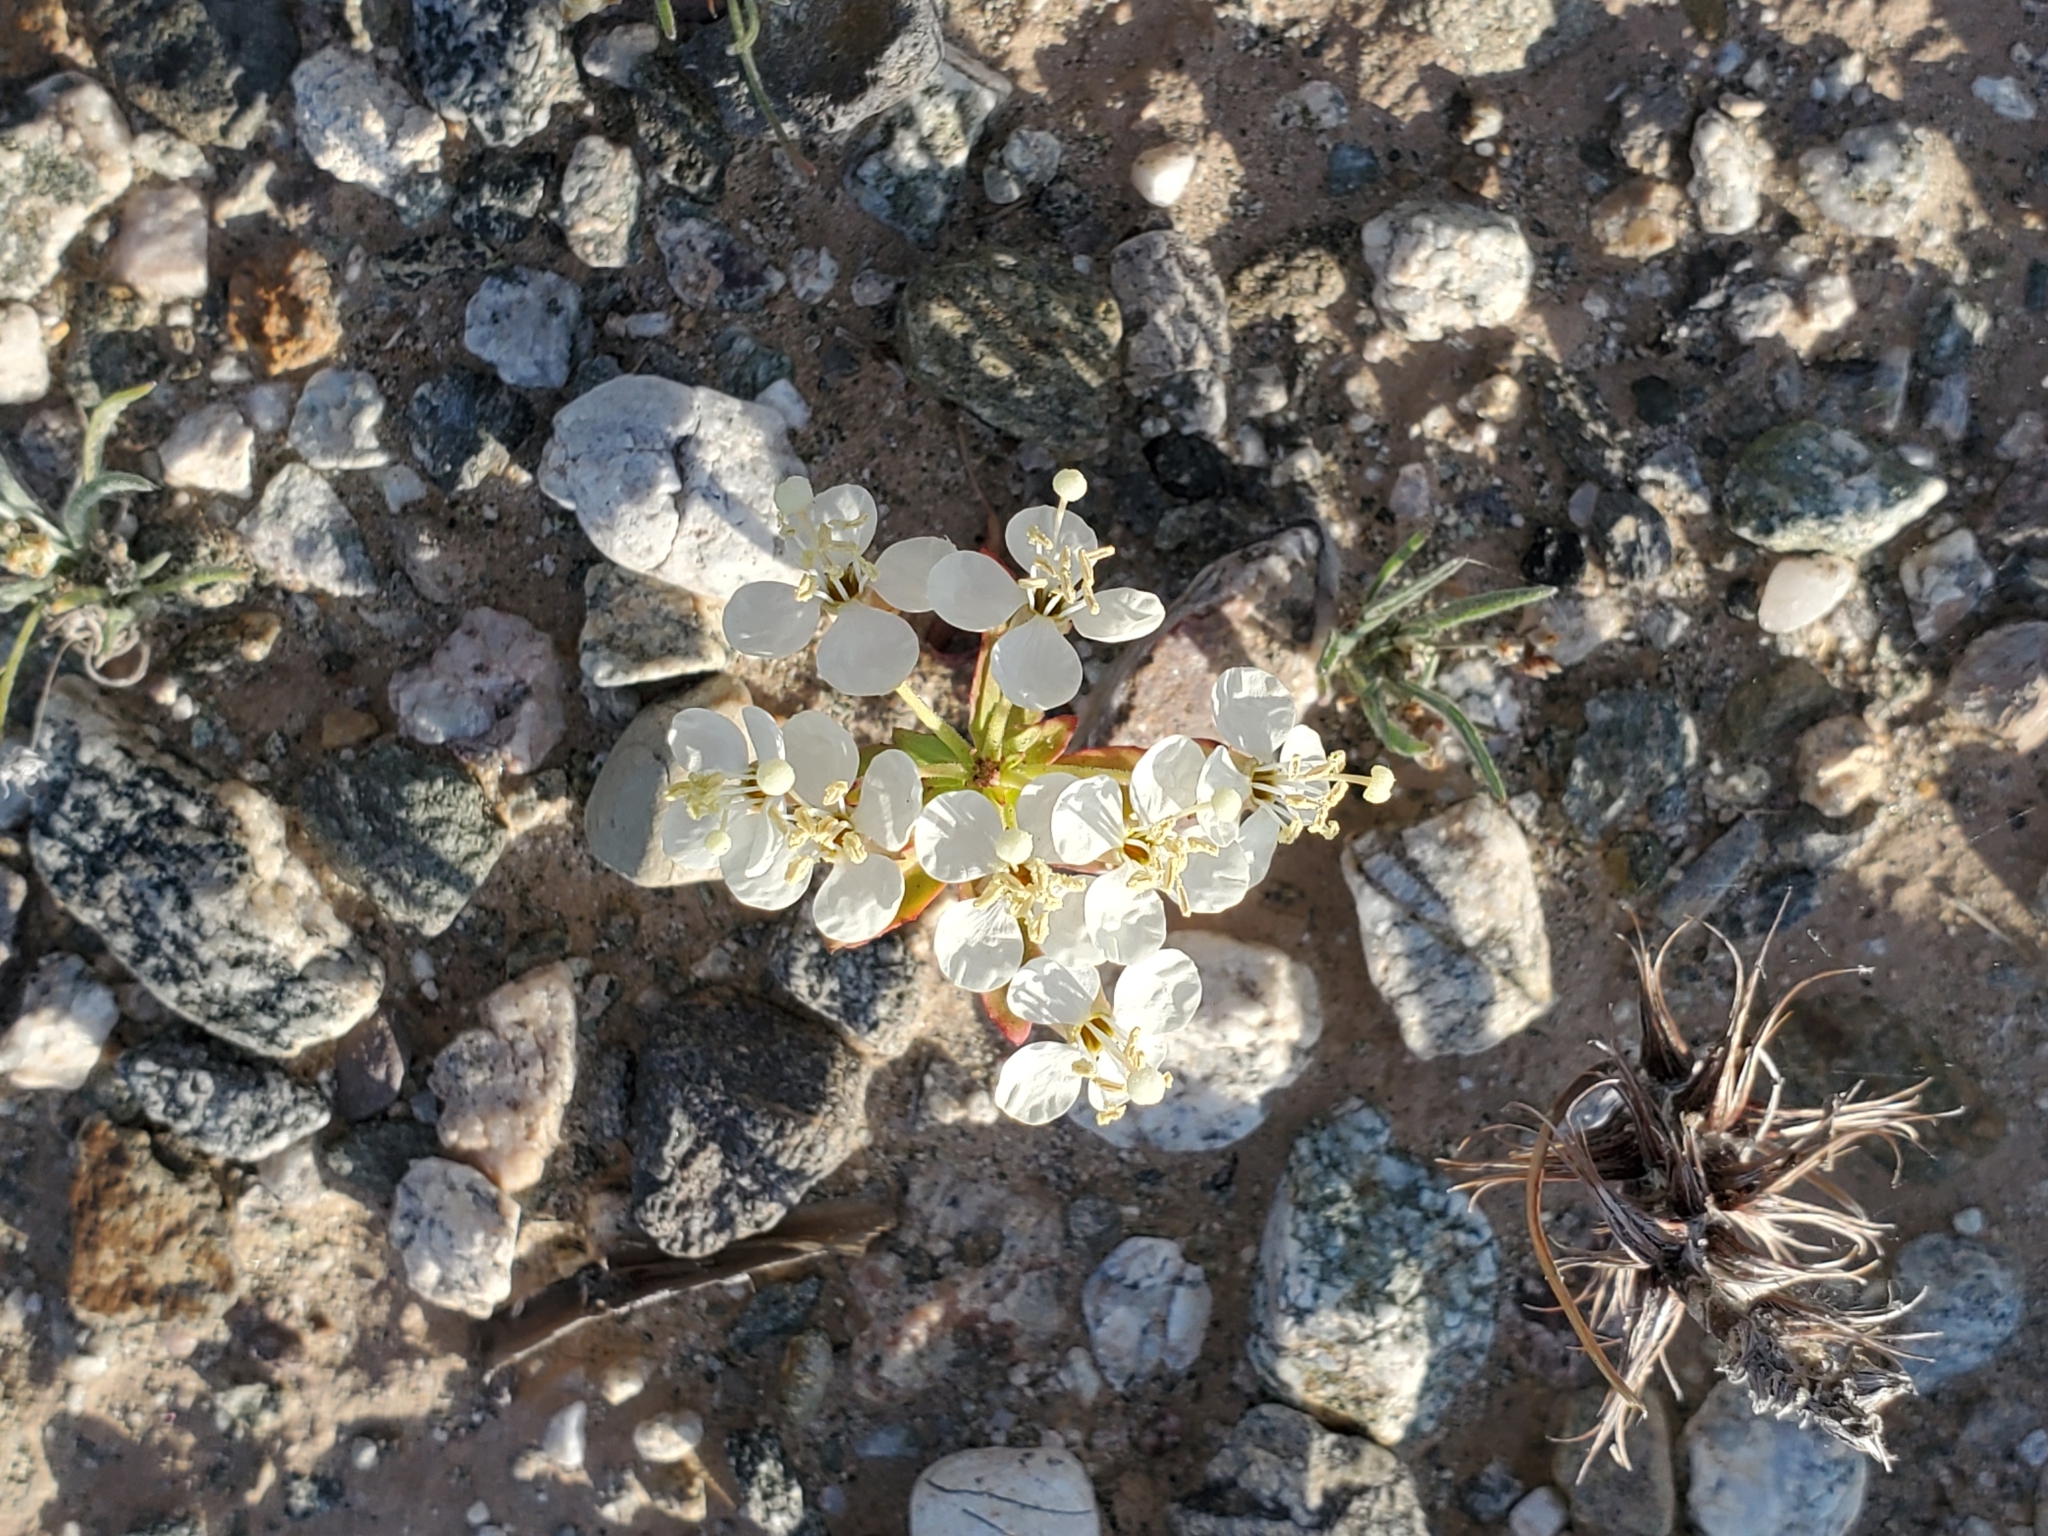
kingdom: Plantae
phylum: Tracheophyta
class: Magnoliopsida
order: Myrtales
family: Onagraceae
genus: Eremothera
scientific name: Eremothera boothii
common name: Booth's evening primrose
